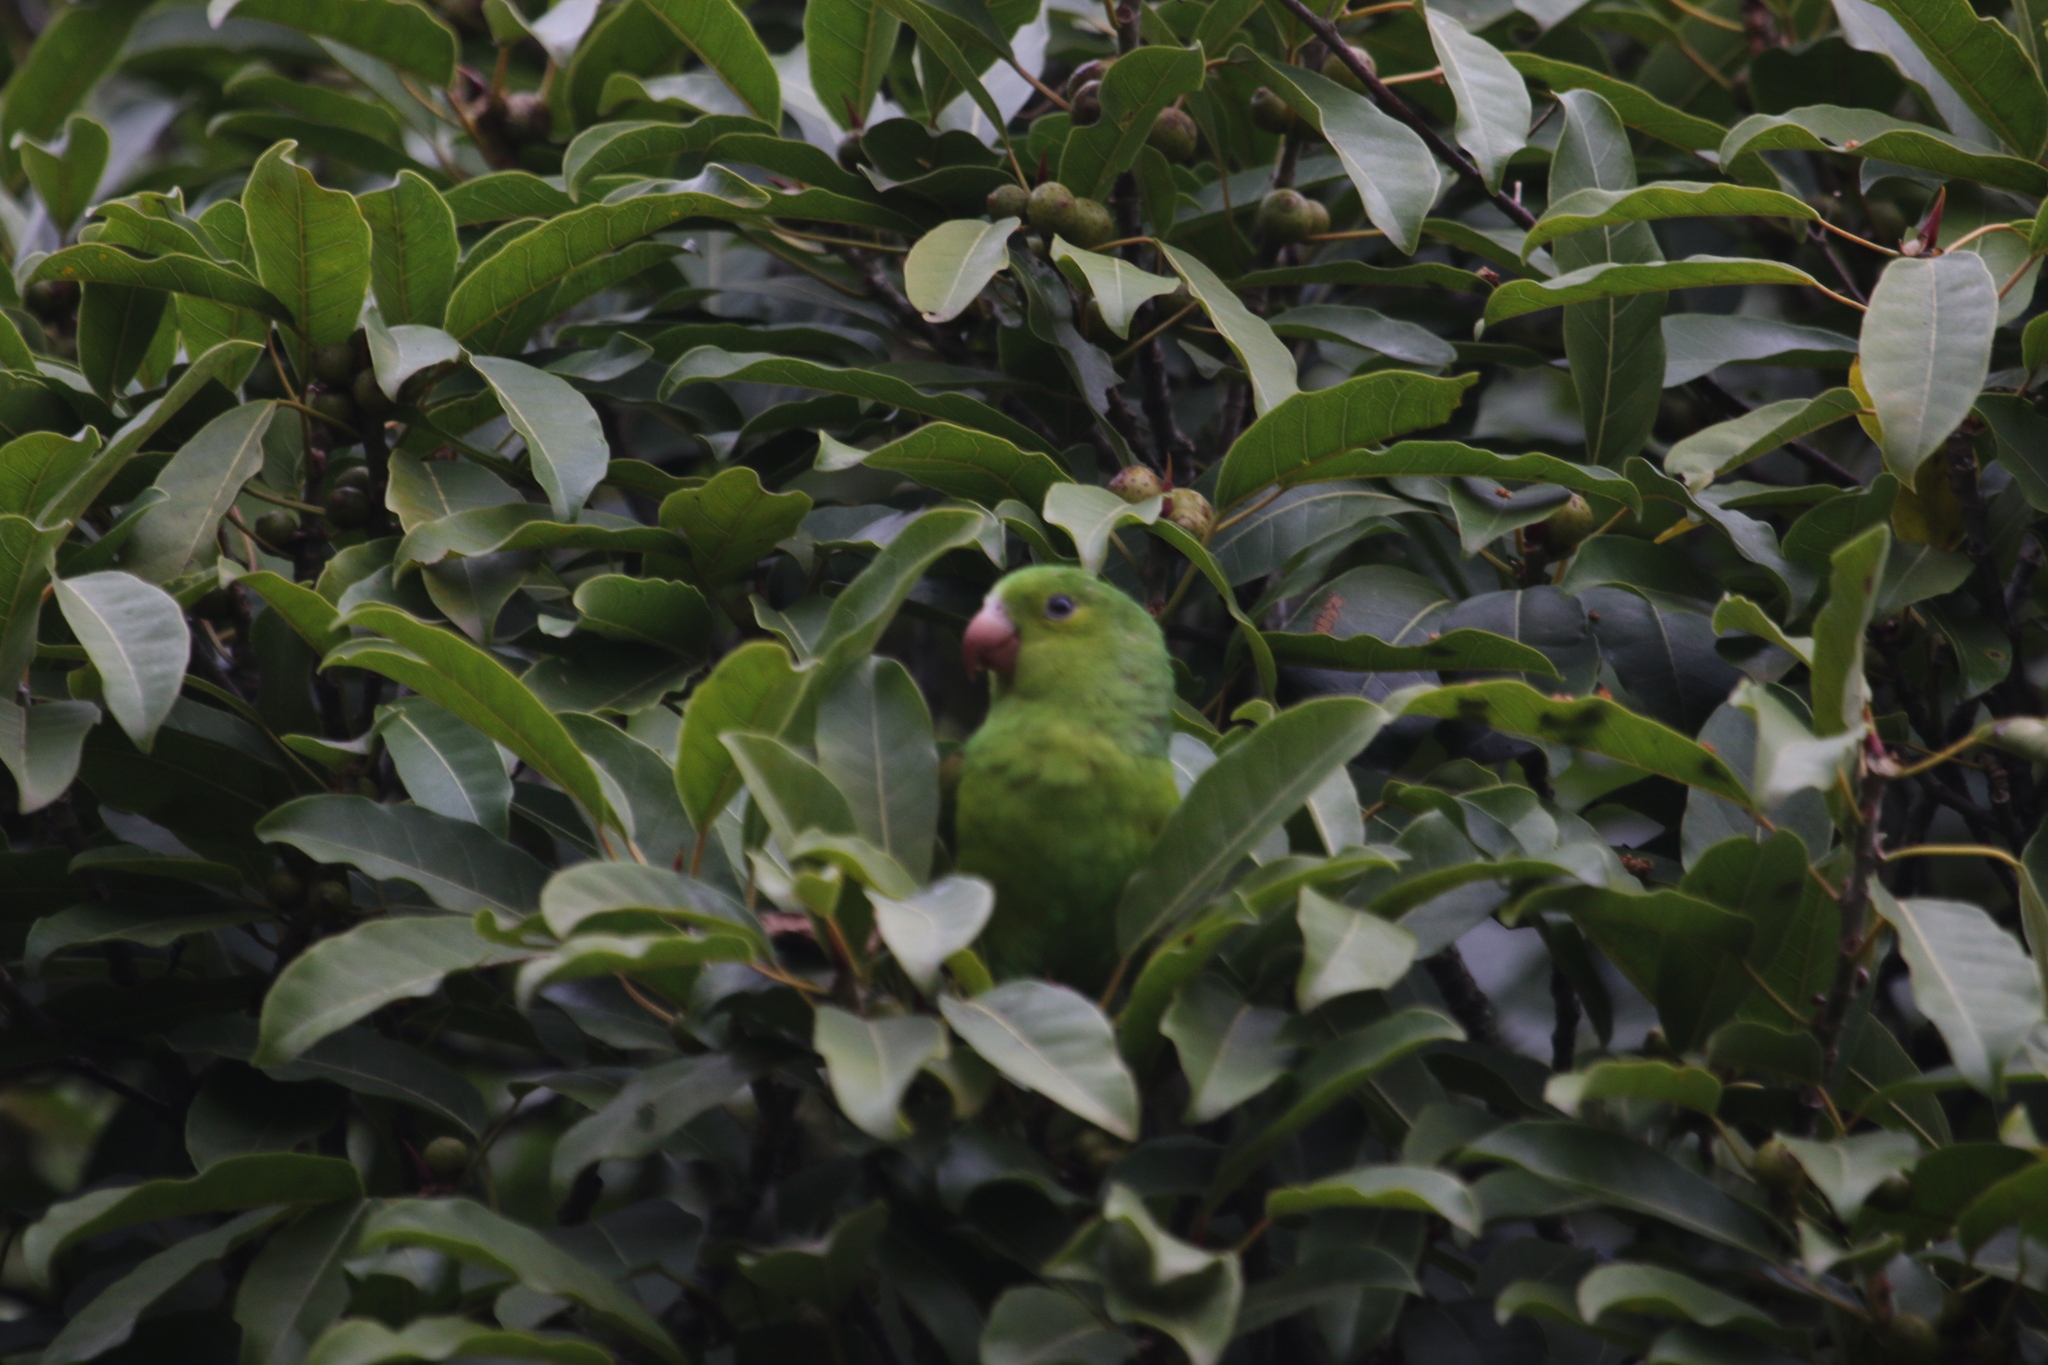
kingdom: Animalia
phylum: Chordata
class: Aves
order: Psittaciformes
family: Psittacidae
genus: Brotogeris
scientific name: Brotogeris tirica
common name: Plain parakeet
